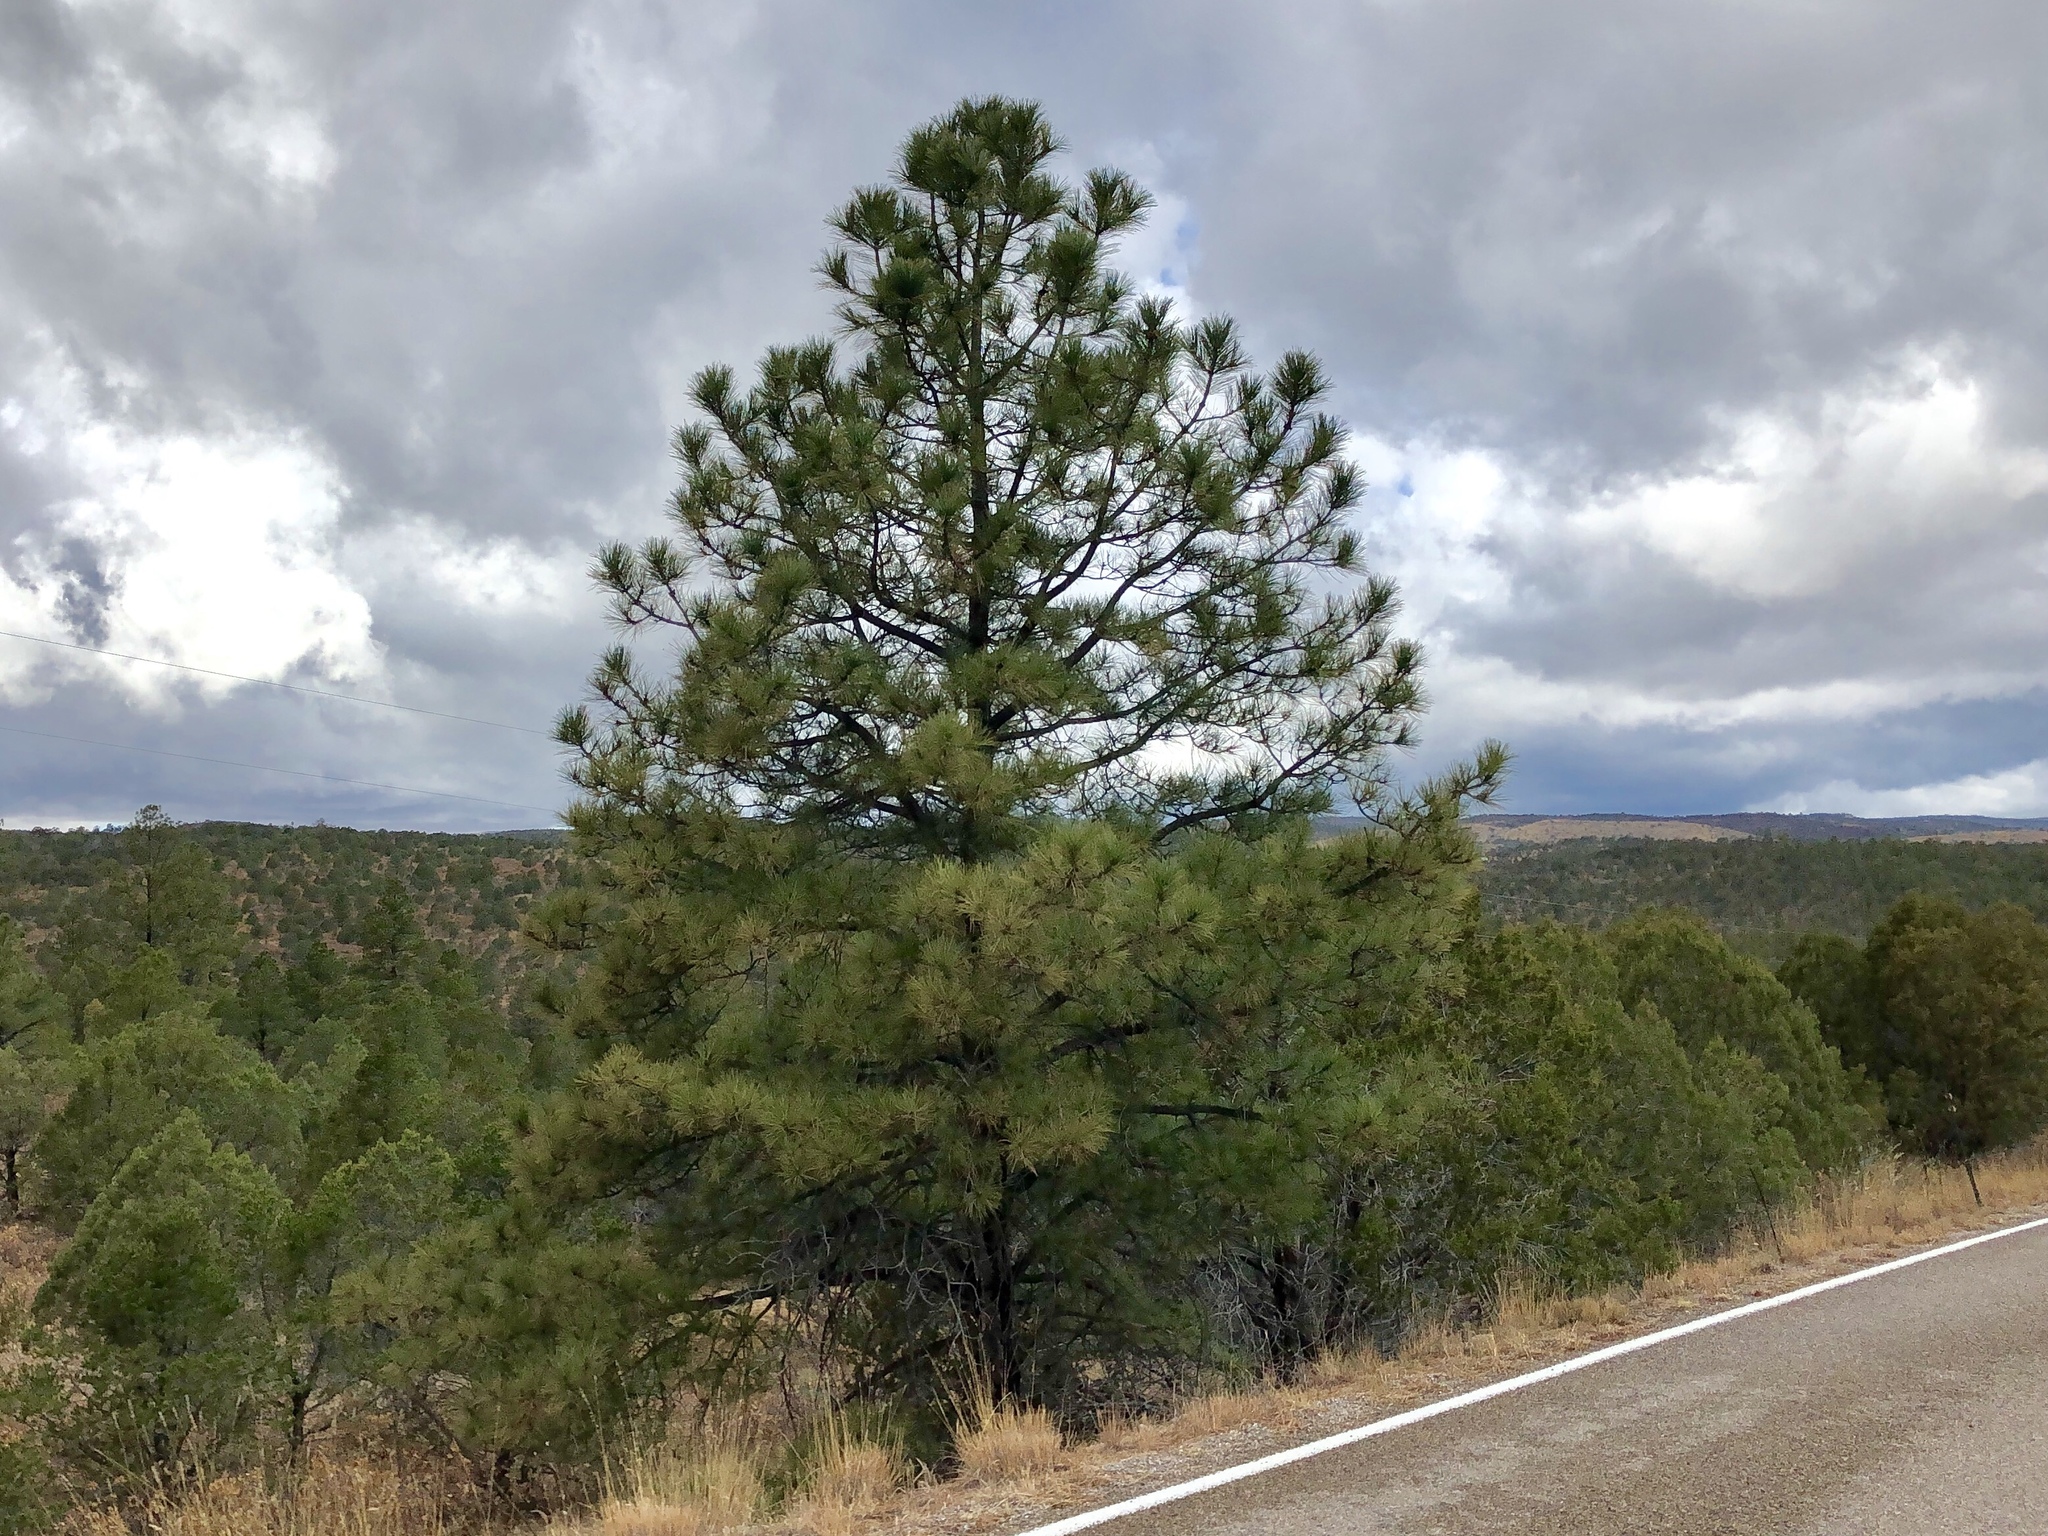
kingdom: Plantae
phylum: Tracheophyta
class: Pinopsida
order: Pinales
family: Pinaceae
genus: Pinus
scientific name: Pinus ponderosa
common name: Western yellow-pine
